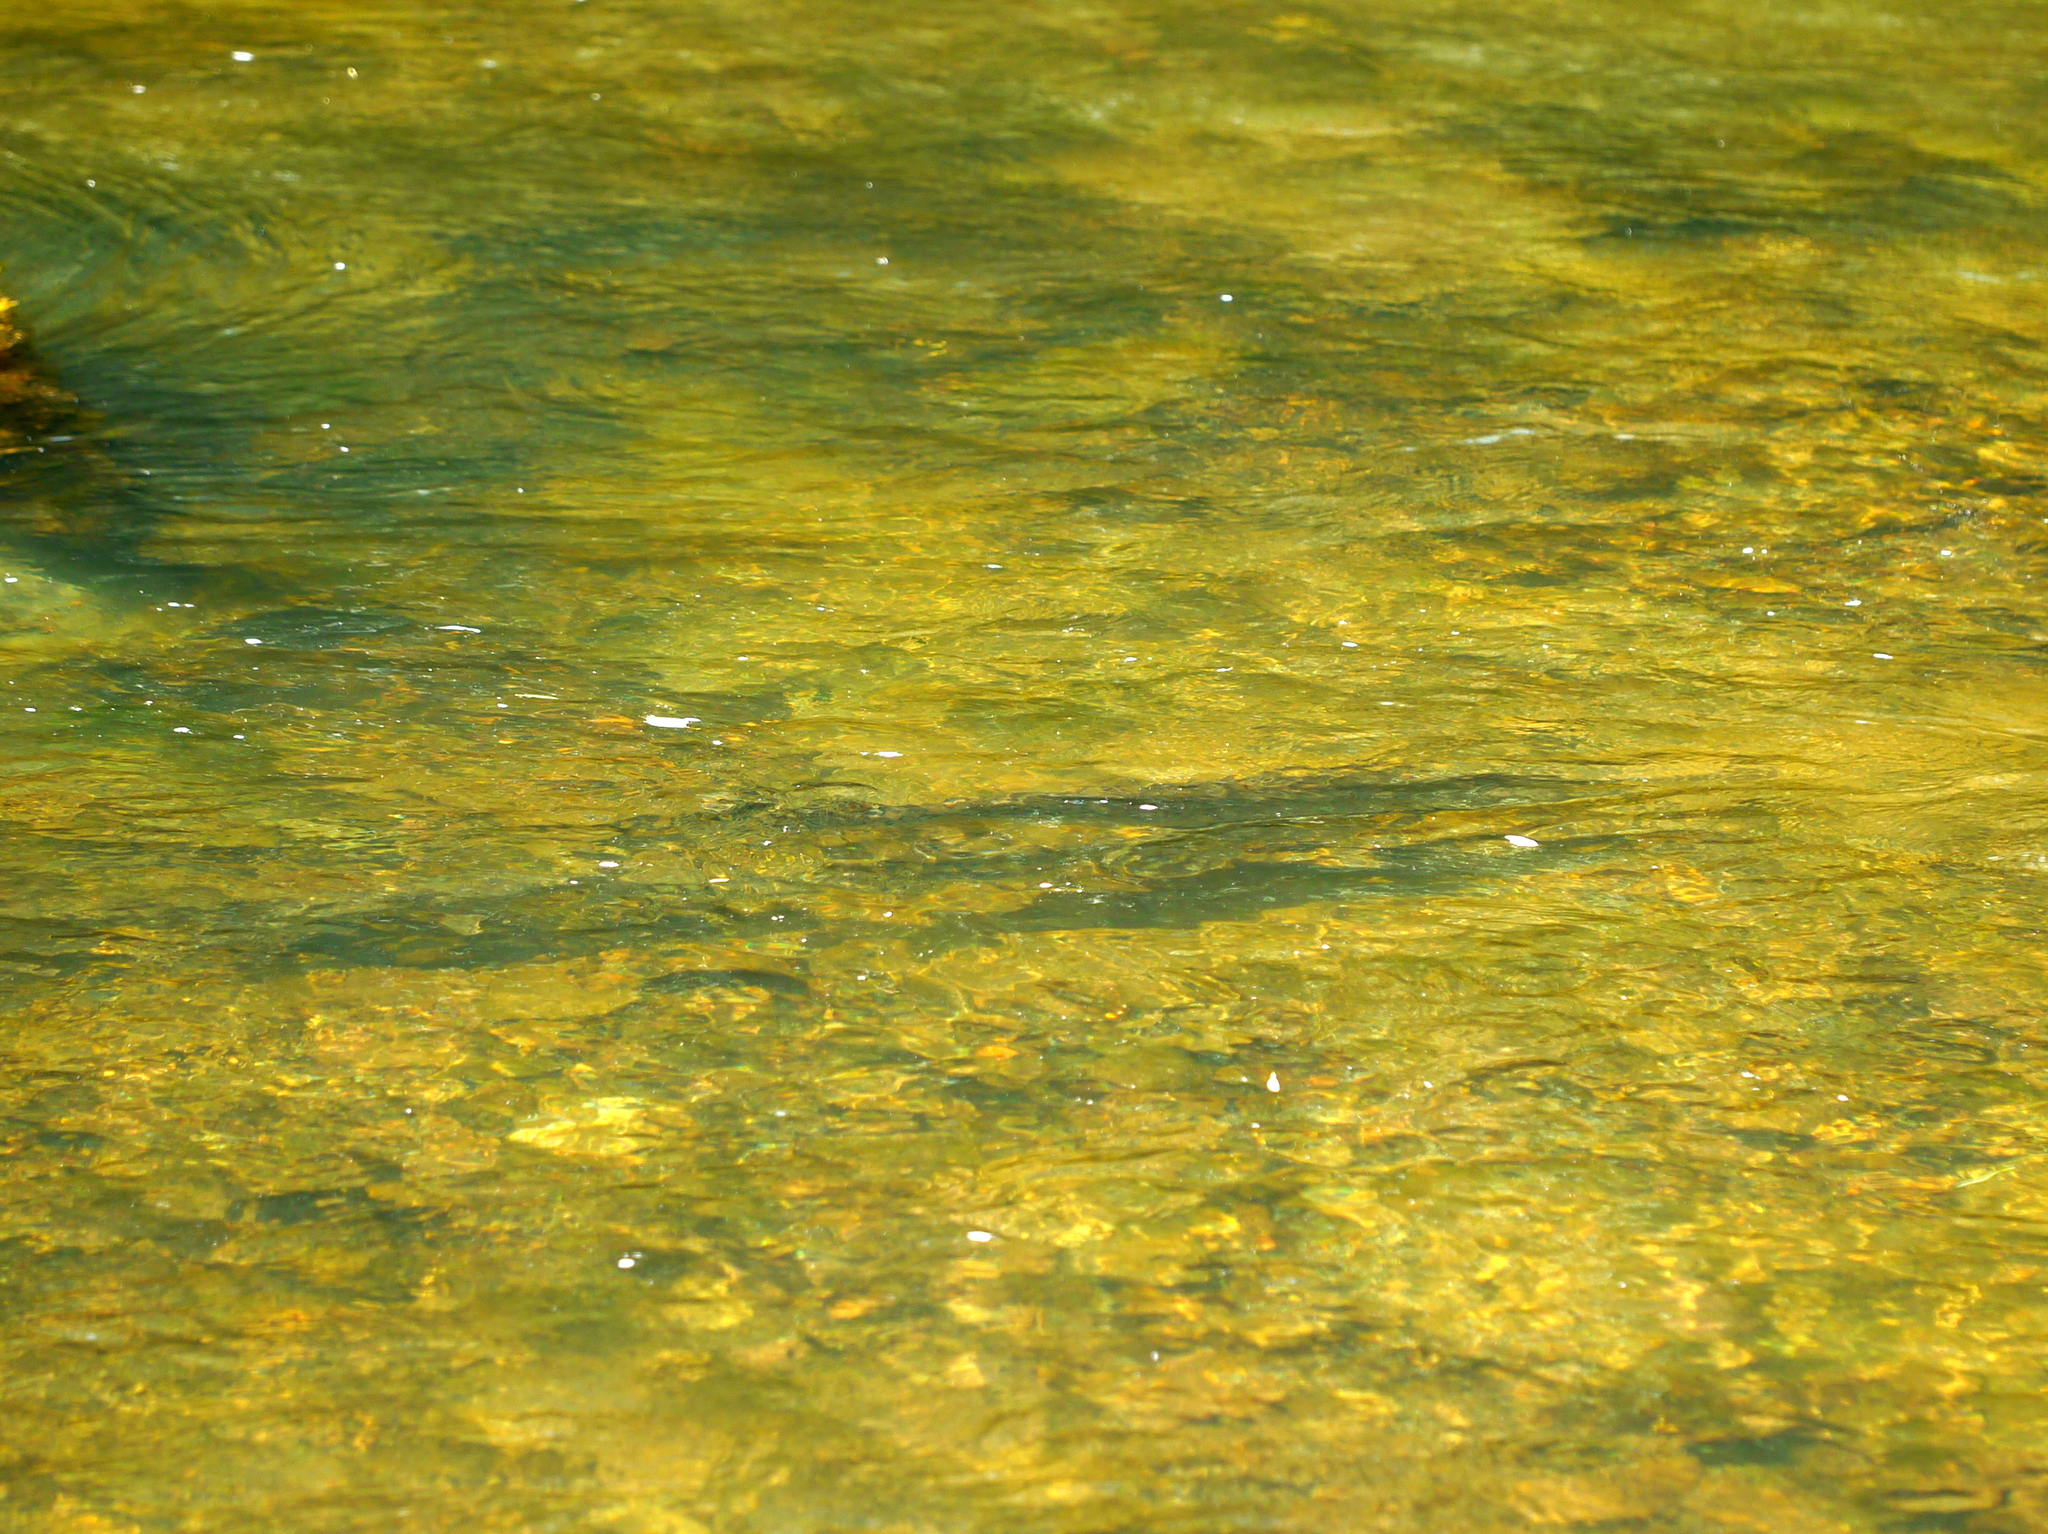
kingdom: Animalia
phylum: Chordata
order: Lepisosteiformes
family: Lepisosteidae
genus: Lepisosteus
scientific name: Lepisosteus osseus
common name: Longnose gar
